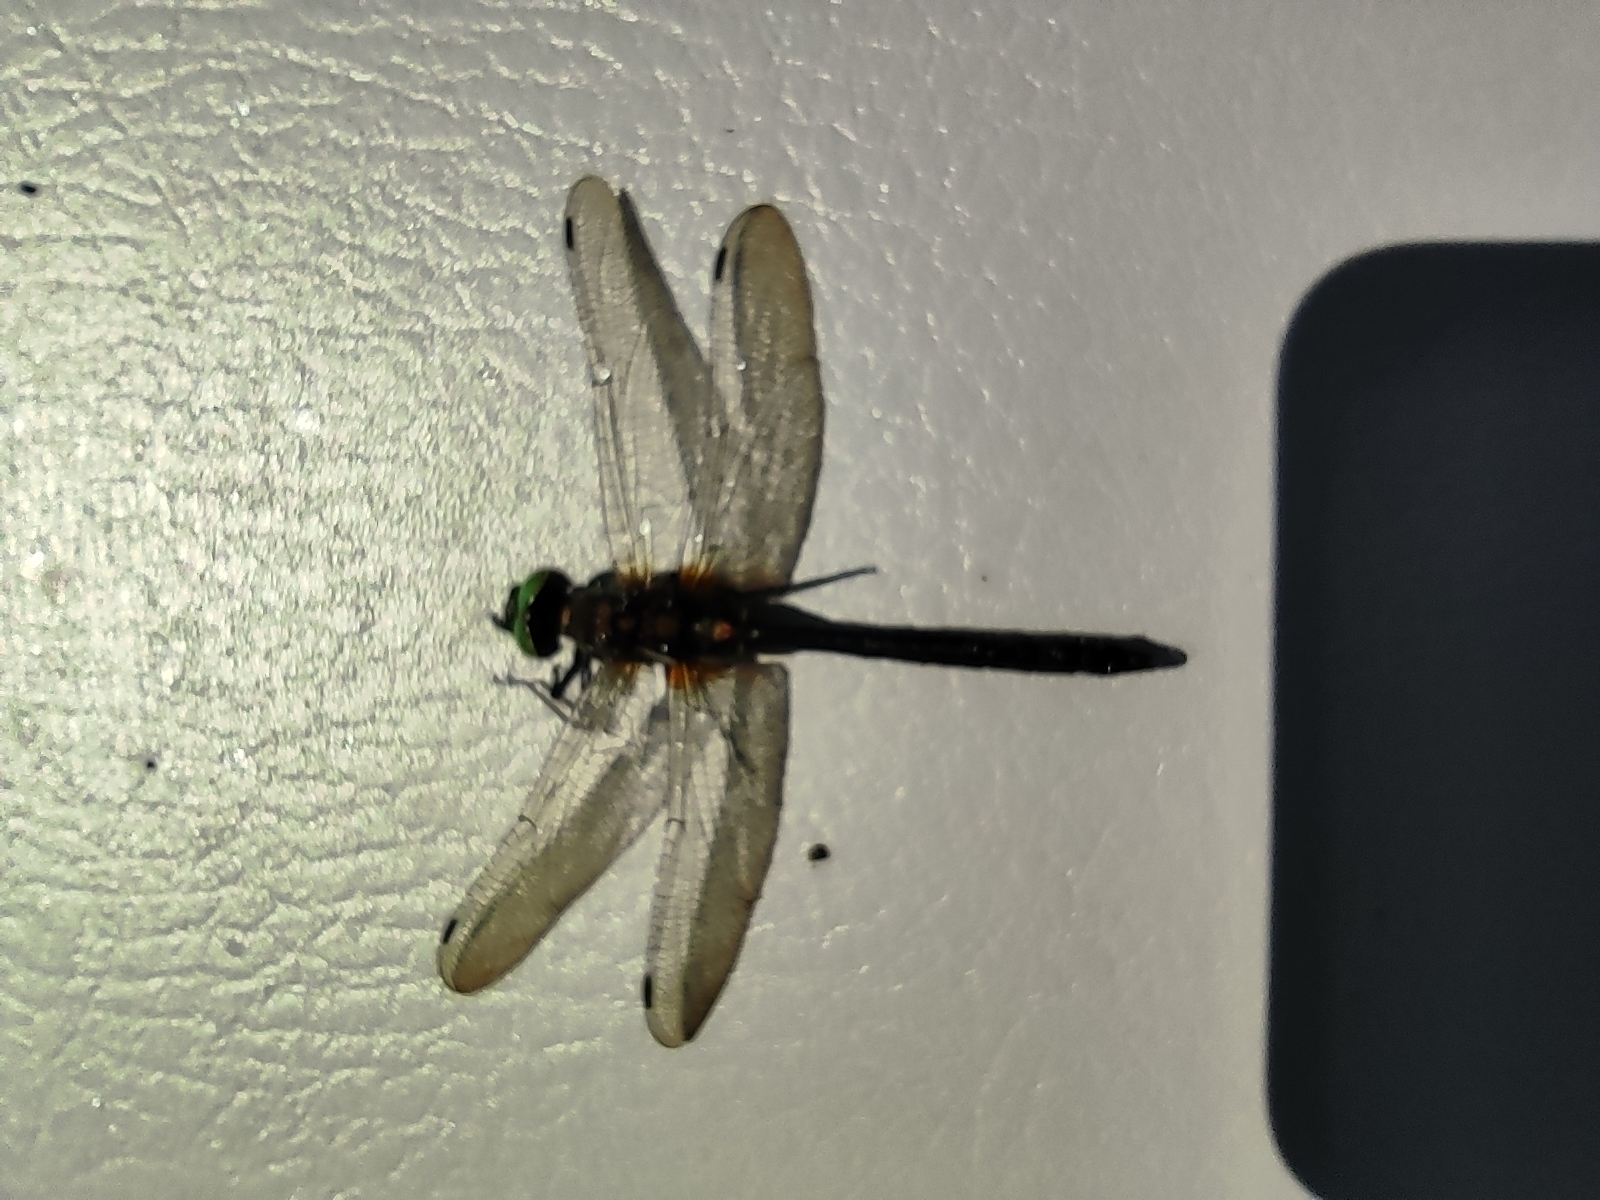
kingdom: Animalia
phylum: Arthropoda
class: Insecta
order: Odonata
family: Corduliidae
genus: Cordulia
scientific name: Cordulia aenea
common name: Downy emerald
